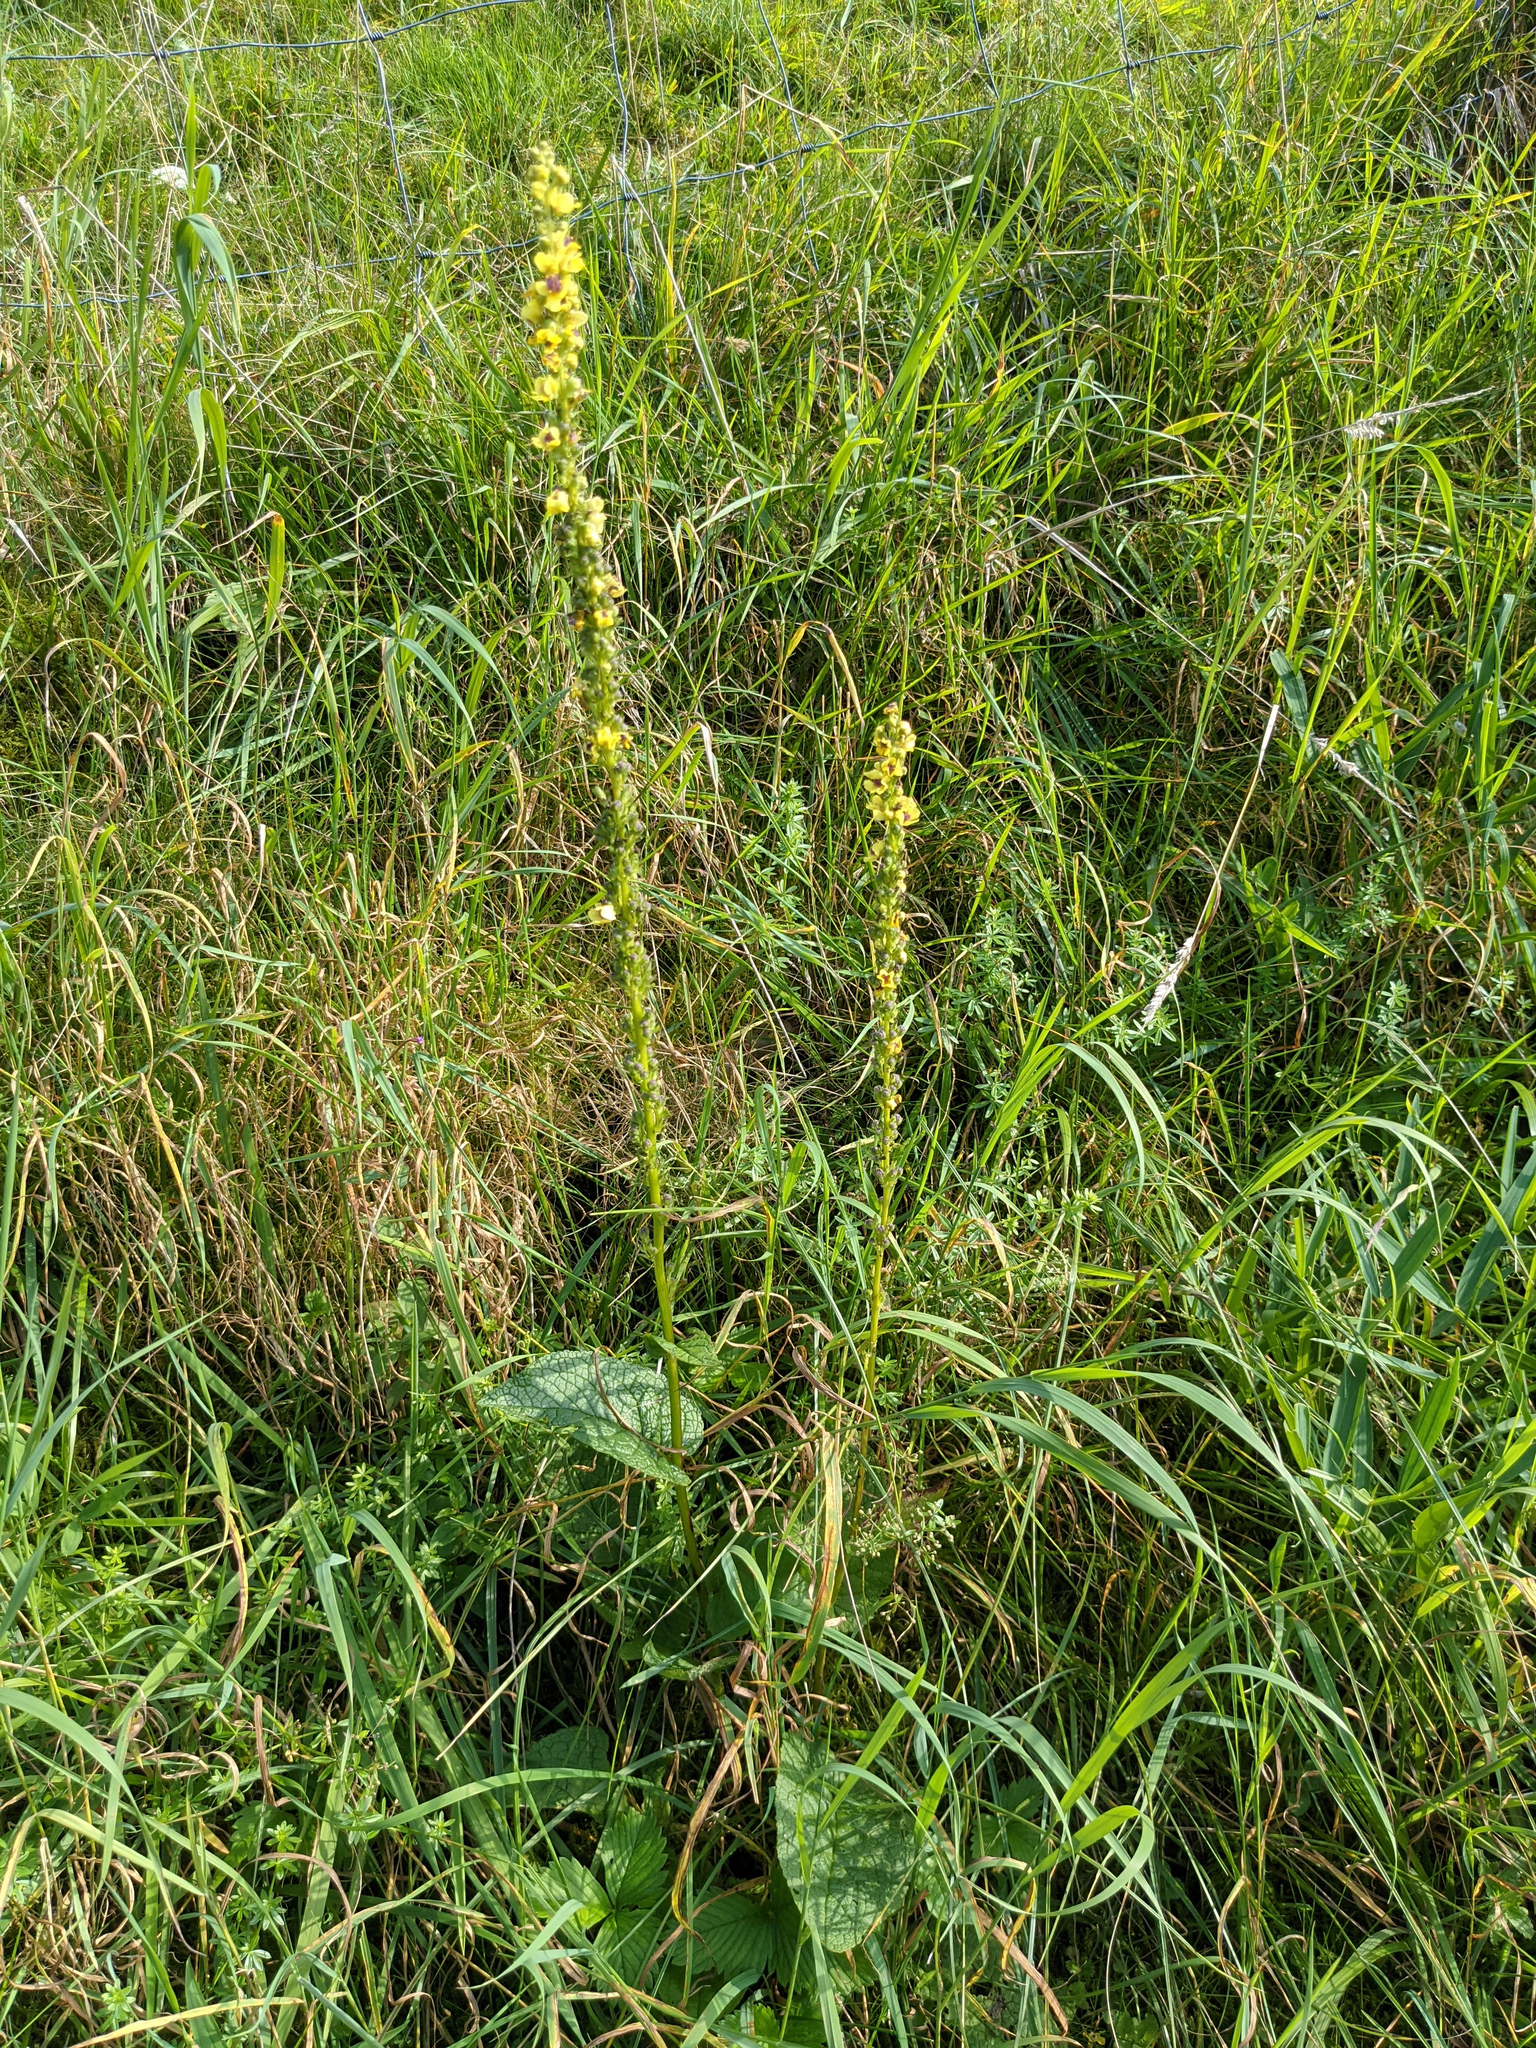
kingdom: Plantae
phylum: Tracheophyta
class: Magnoliopsida
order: Lamiales
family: Scrophulariaceae
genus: Verbascum
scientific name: Verbascum nigrum
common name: Dark mullein
